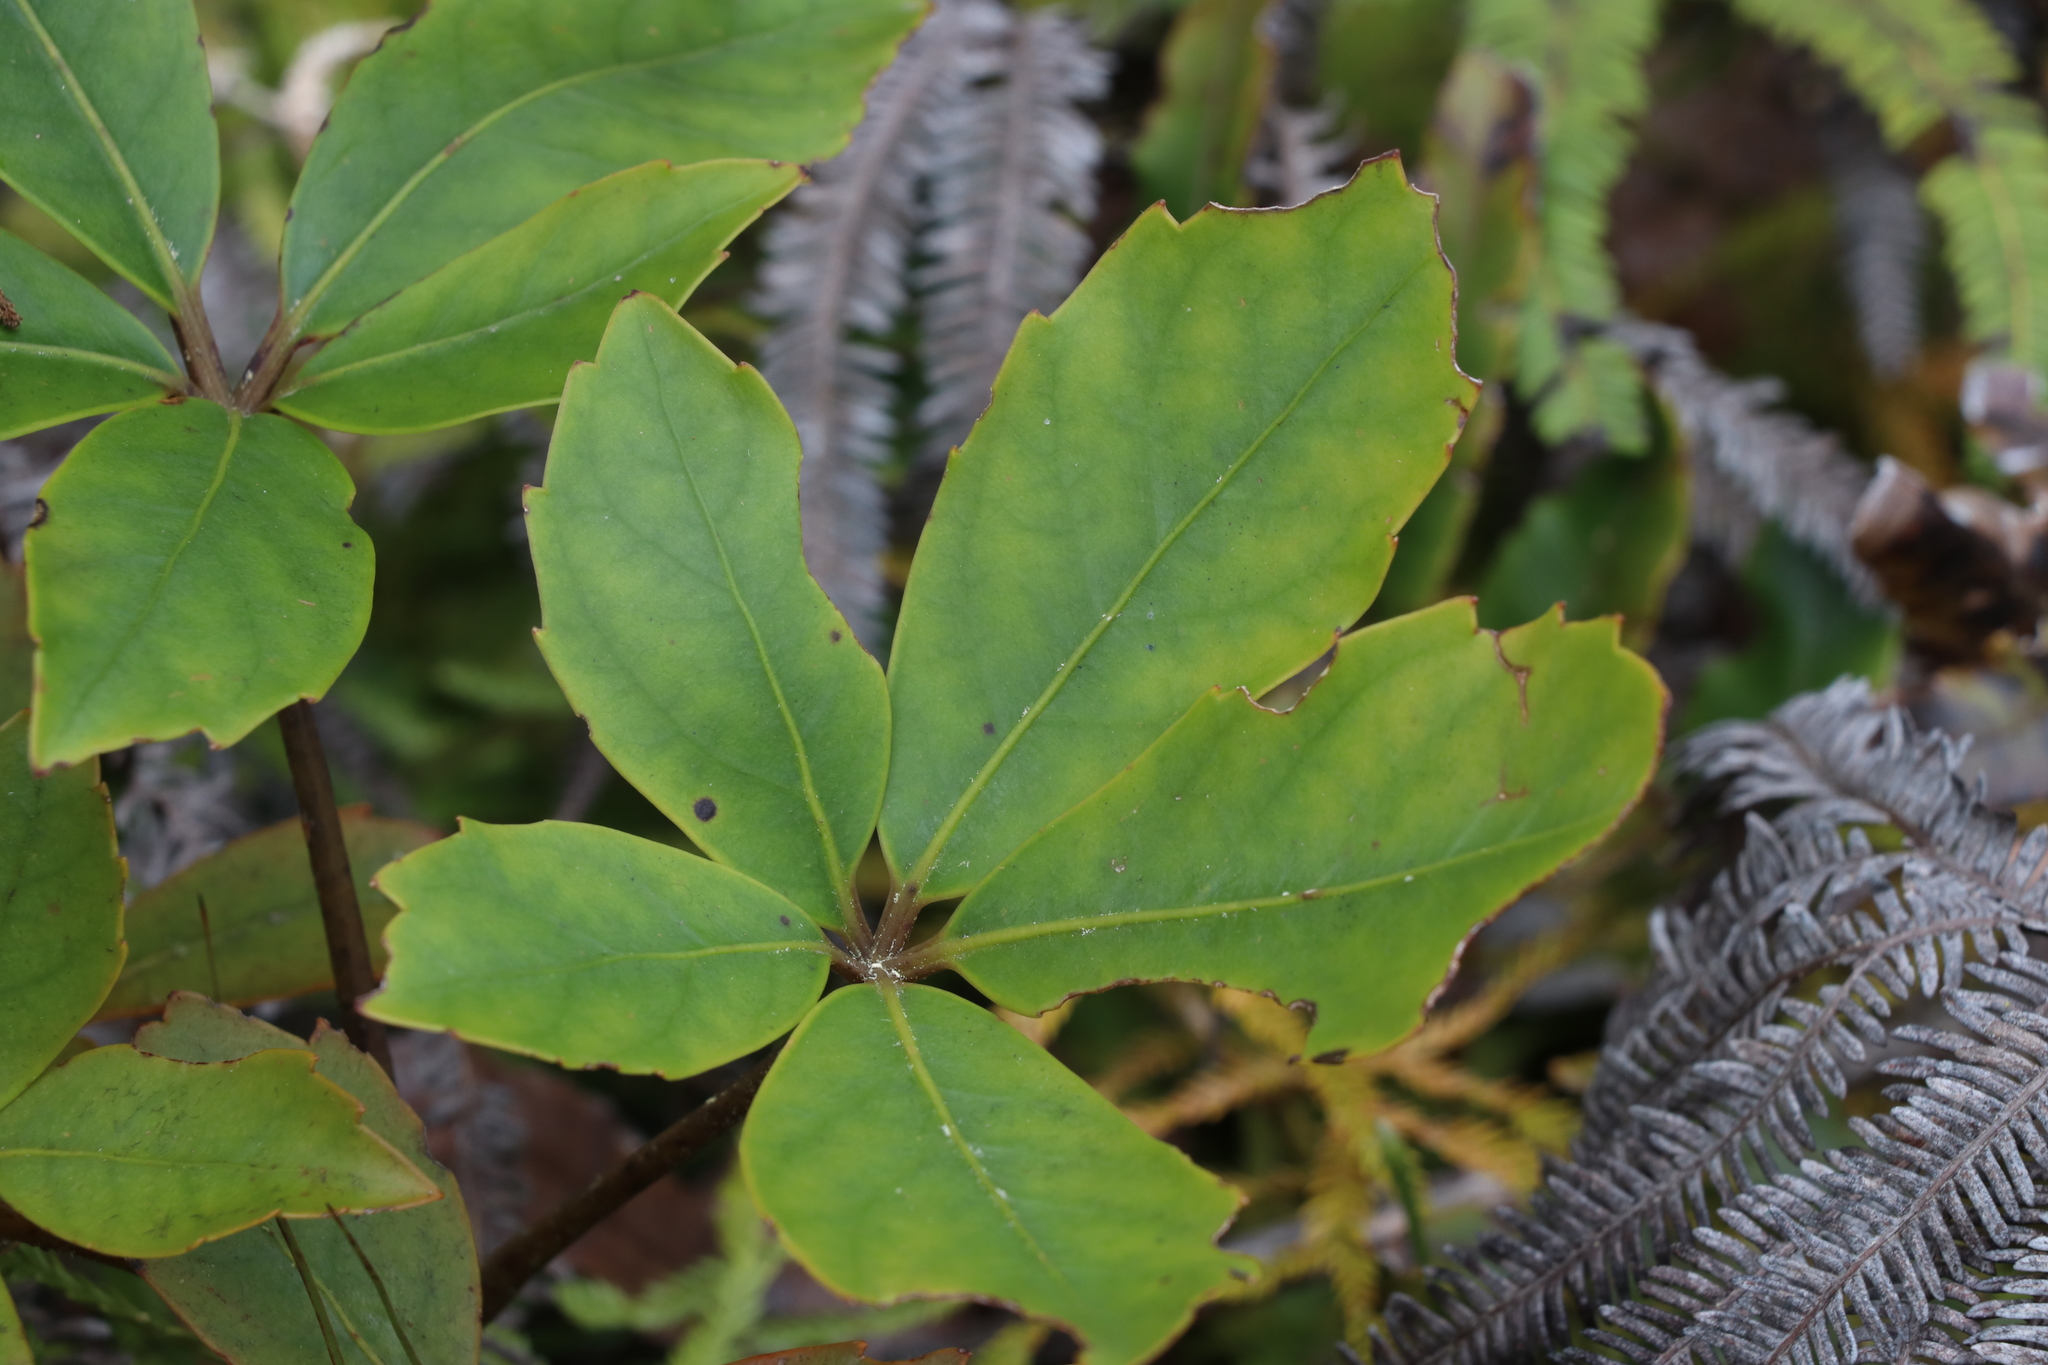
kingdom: Plantae
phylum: Tracheophyta
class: Magnoliopsida
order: Apiales
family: Araliaceae
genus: Neopanax
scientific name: Neopanax colensoi
